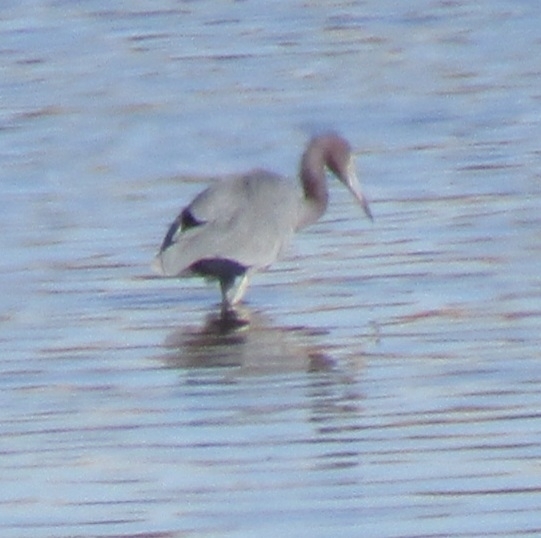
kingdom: Animalia
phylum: Chordata
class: Aves
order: Pelecaniformes
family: Ardeidae
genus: Egretta
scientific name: Egretta caerulea
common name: Little blue heron
